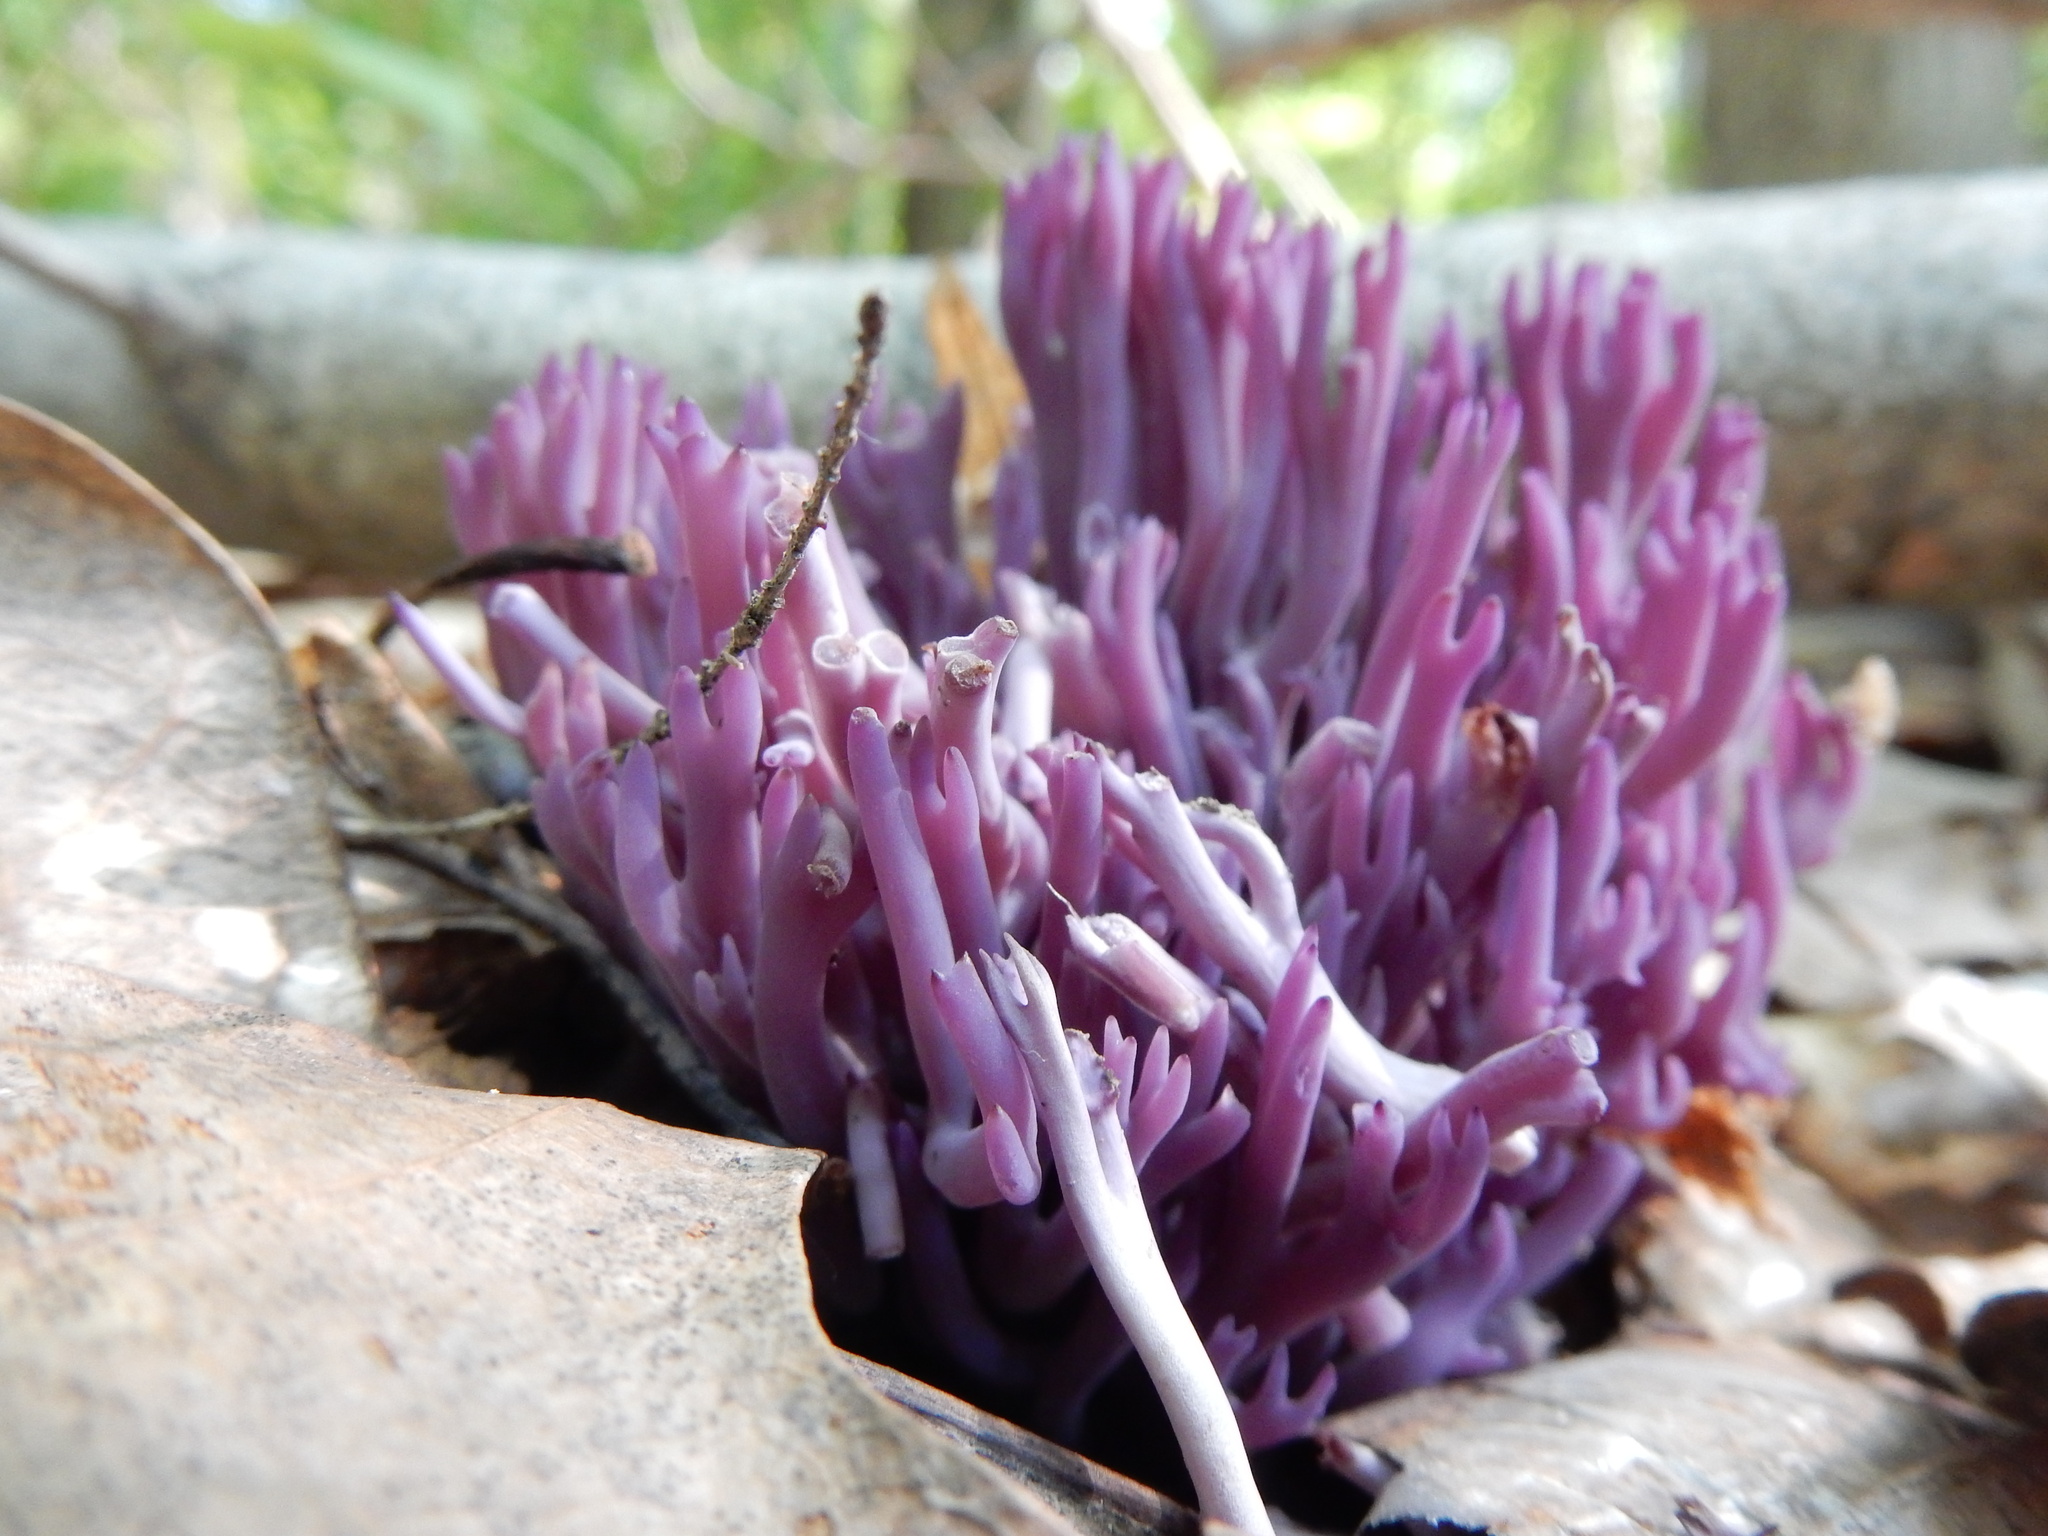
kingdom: Fungi
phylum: Basidiomycota
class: Agaricomycetes
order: Agaricales
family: Clavariaceae
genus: Clavaria
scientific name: Clavaria zollingeri
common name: Violet coral
